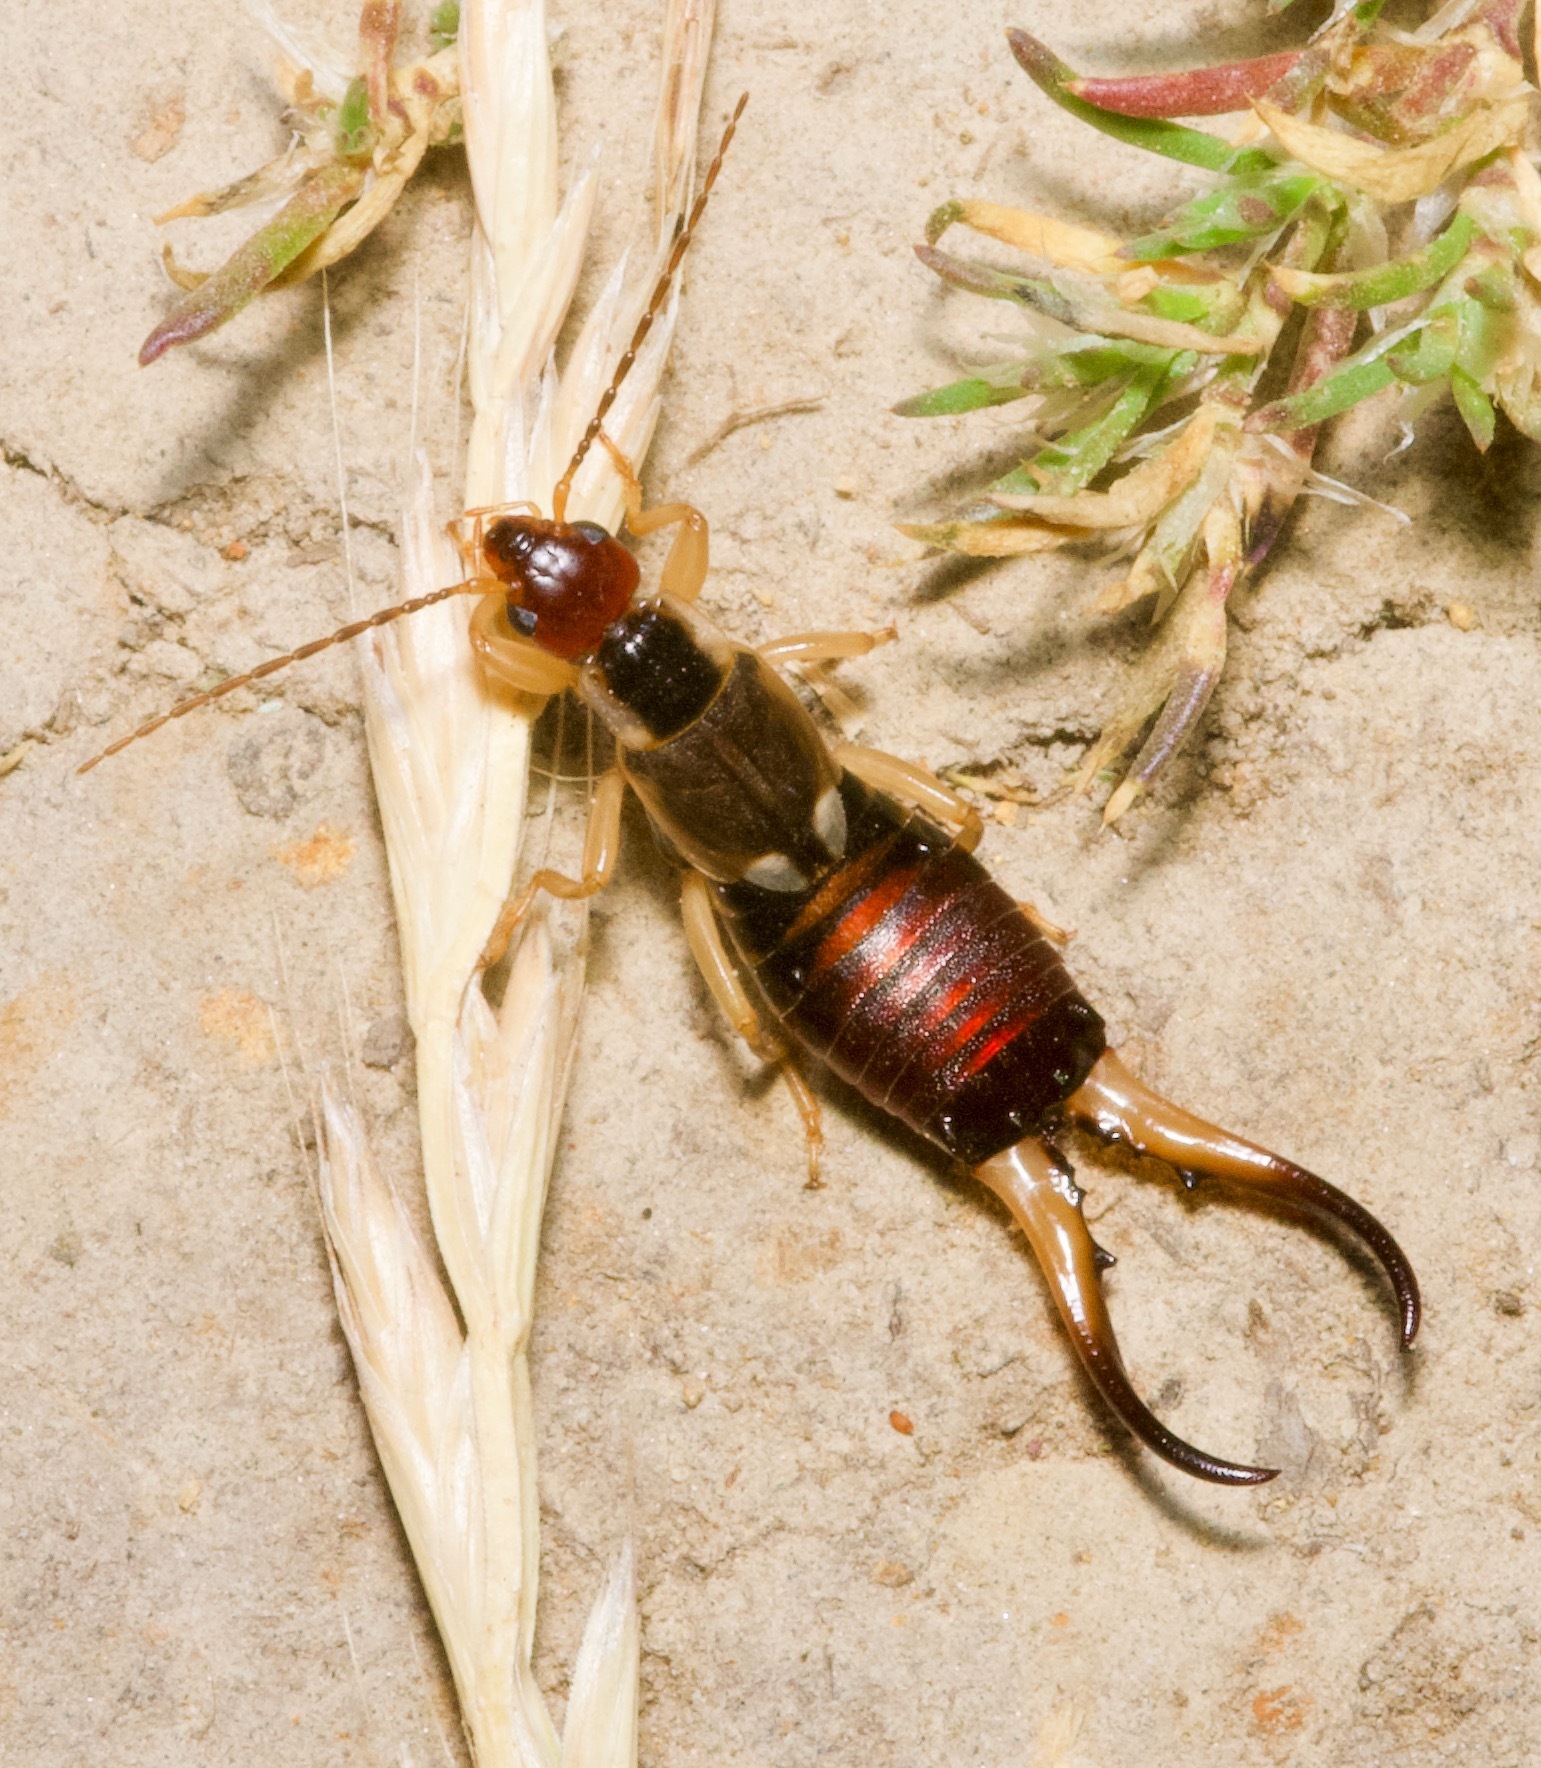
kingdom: Animalia
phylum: Arthropoda
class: Insecta
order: Dermaptera
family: Forficulidae
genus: Forficula
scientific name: Forficula dentata
